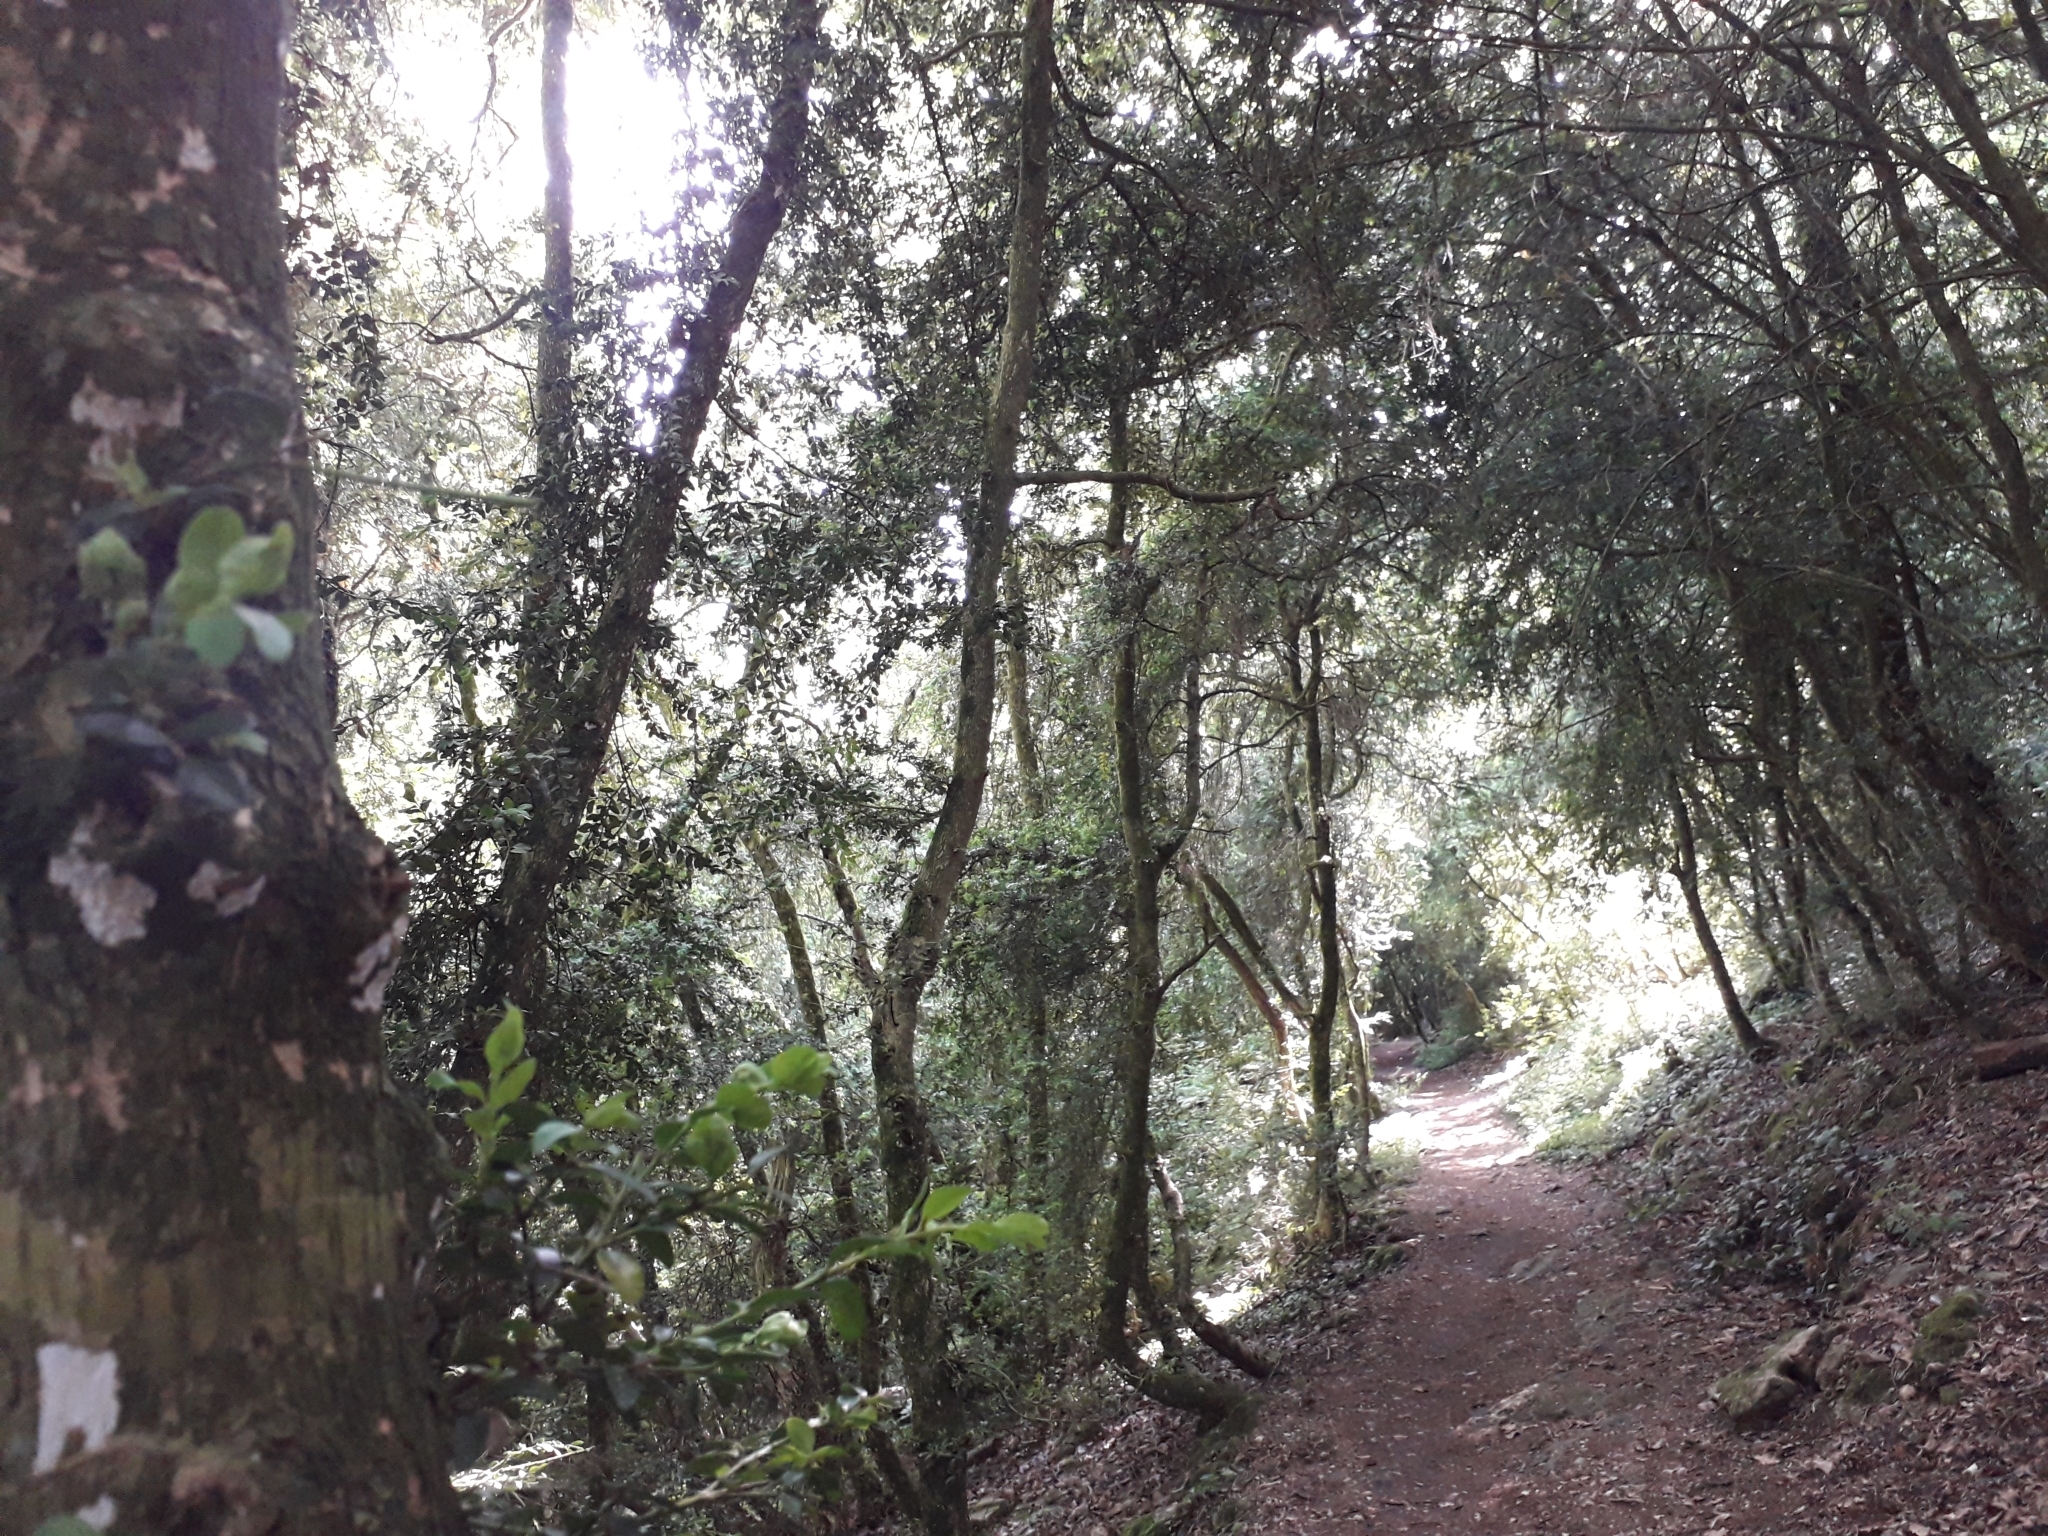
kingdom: Plantae
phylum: Tracheophyta
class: Magnoliopsida
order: Buxales
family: Buxaceae
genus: Buxus
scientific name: Buxus sempervirens
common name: Box
